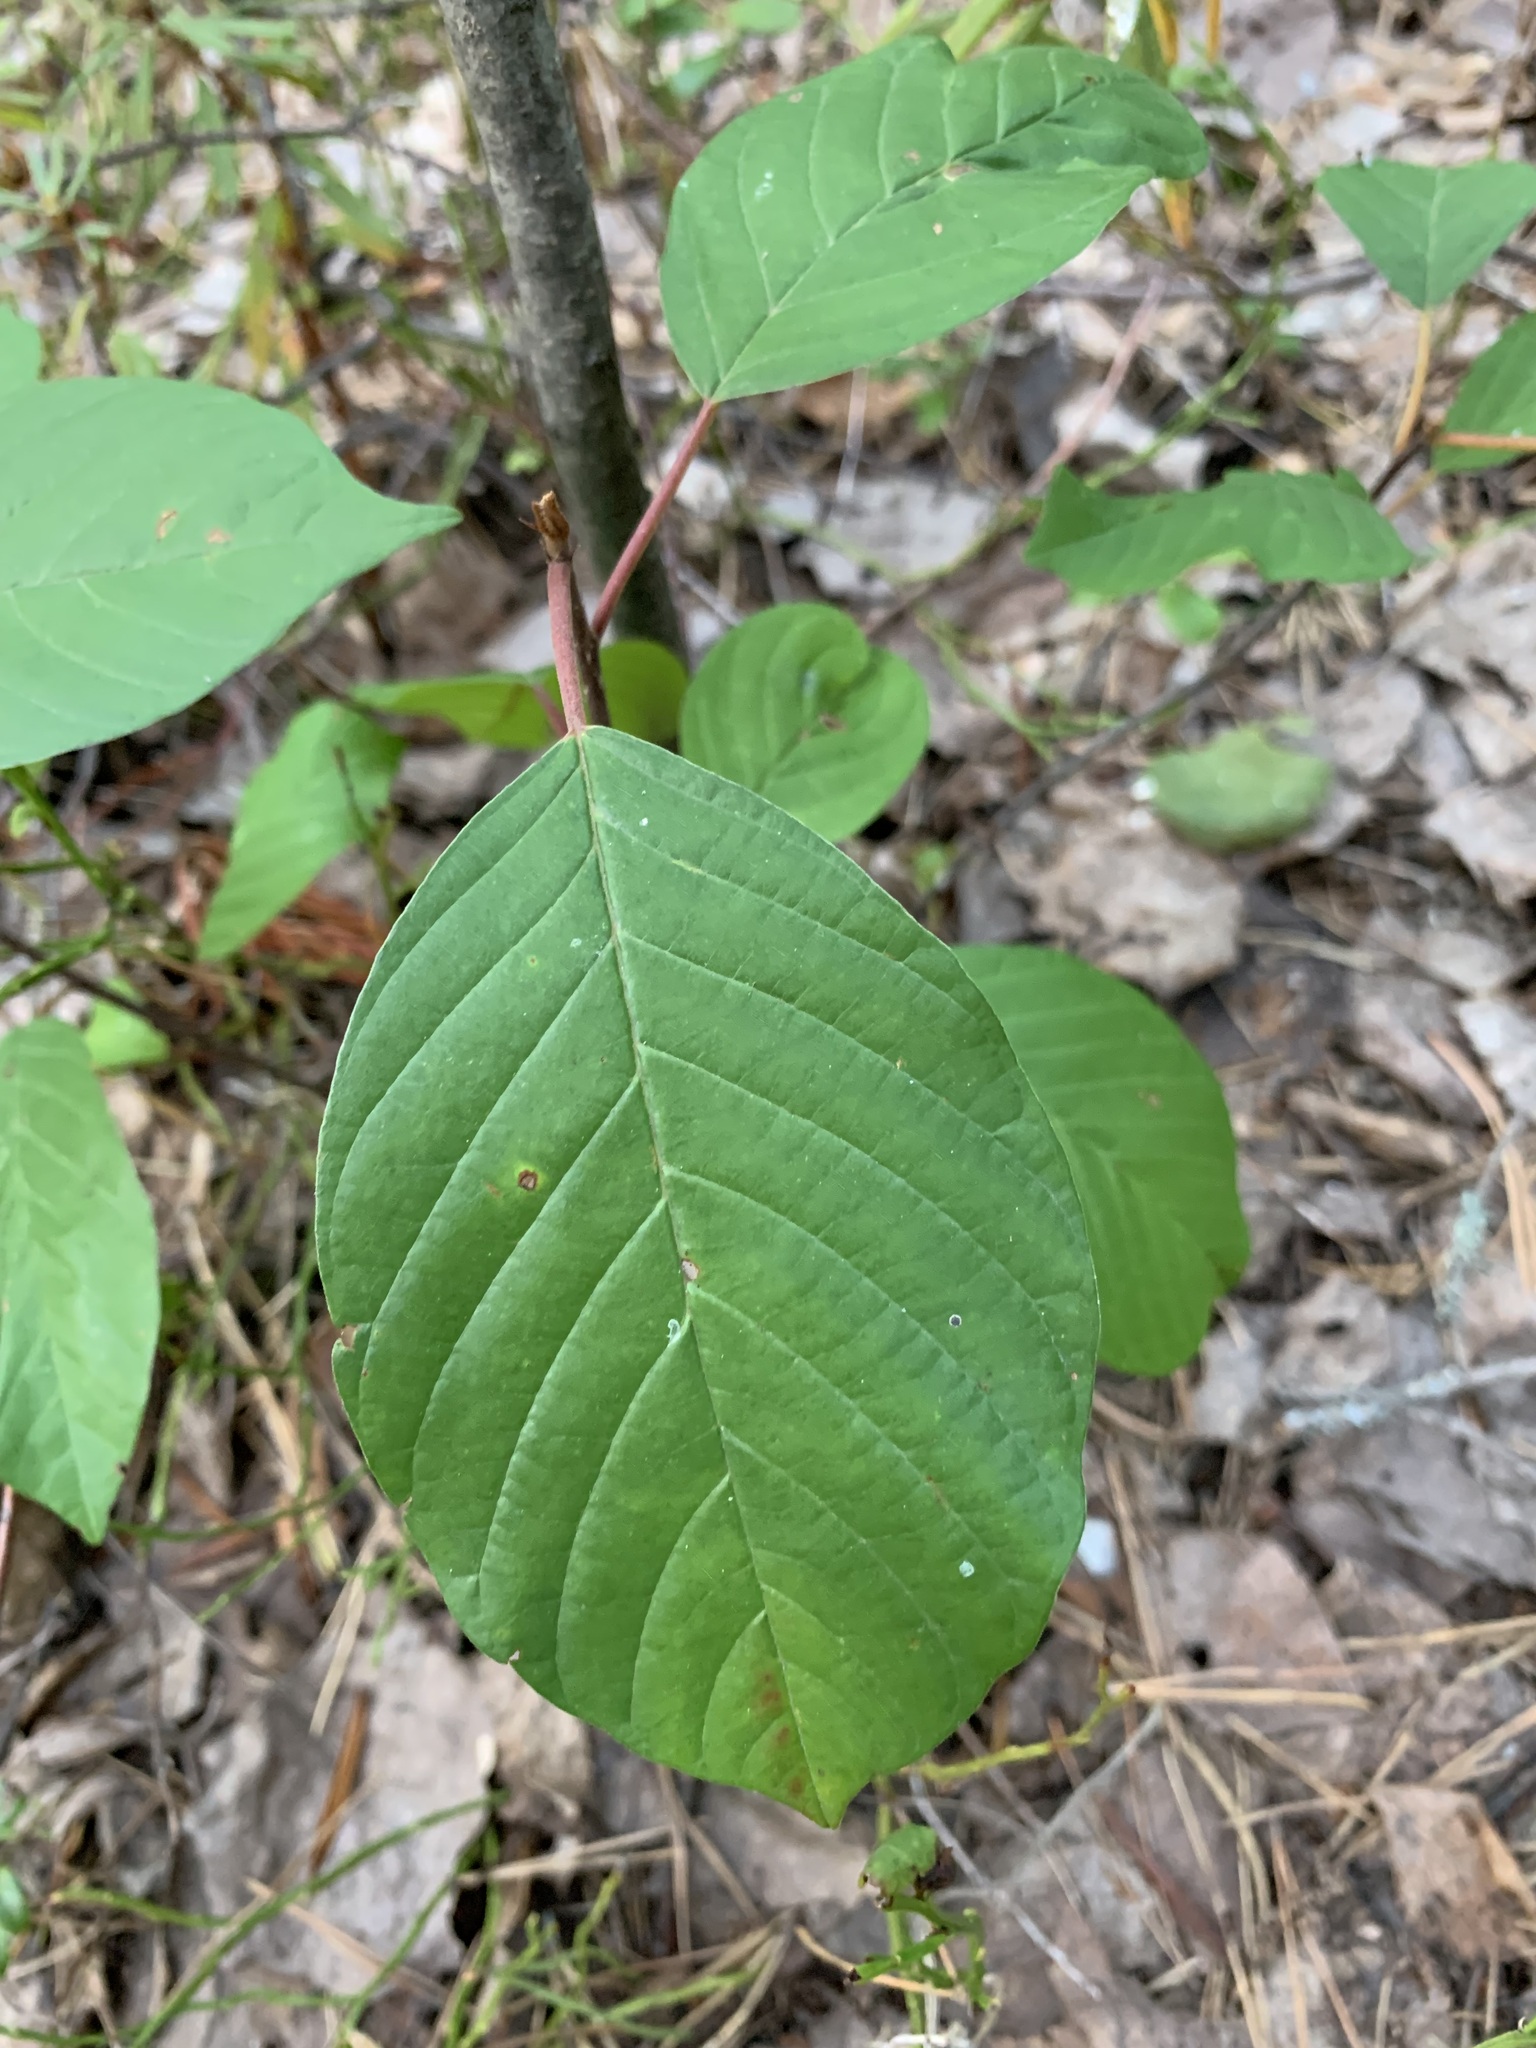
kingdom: Plantae
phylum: Tracheophyta
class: Magnoliopsida
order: Rosales
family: Rhamnaceae
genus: Frangula
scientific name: Frangula alnus
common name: Alder buckthorn
